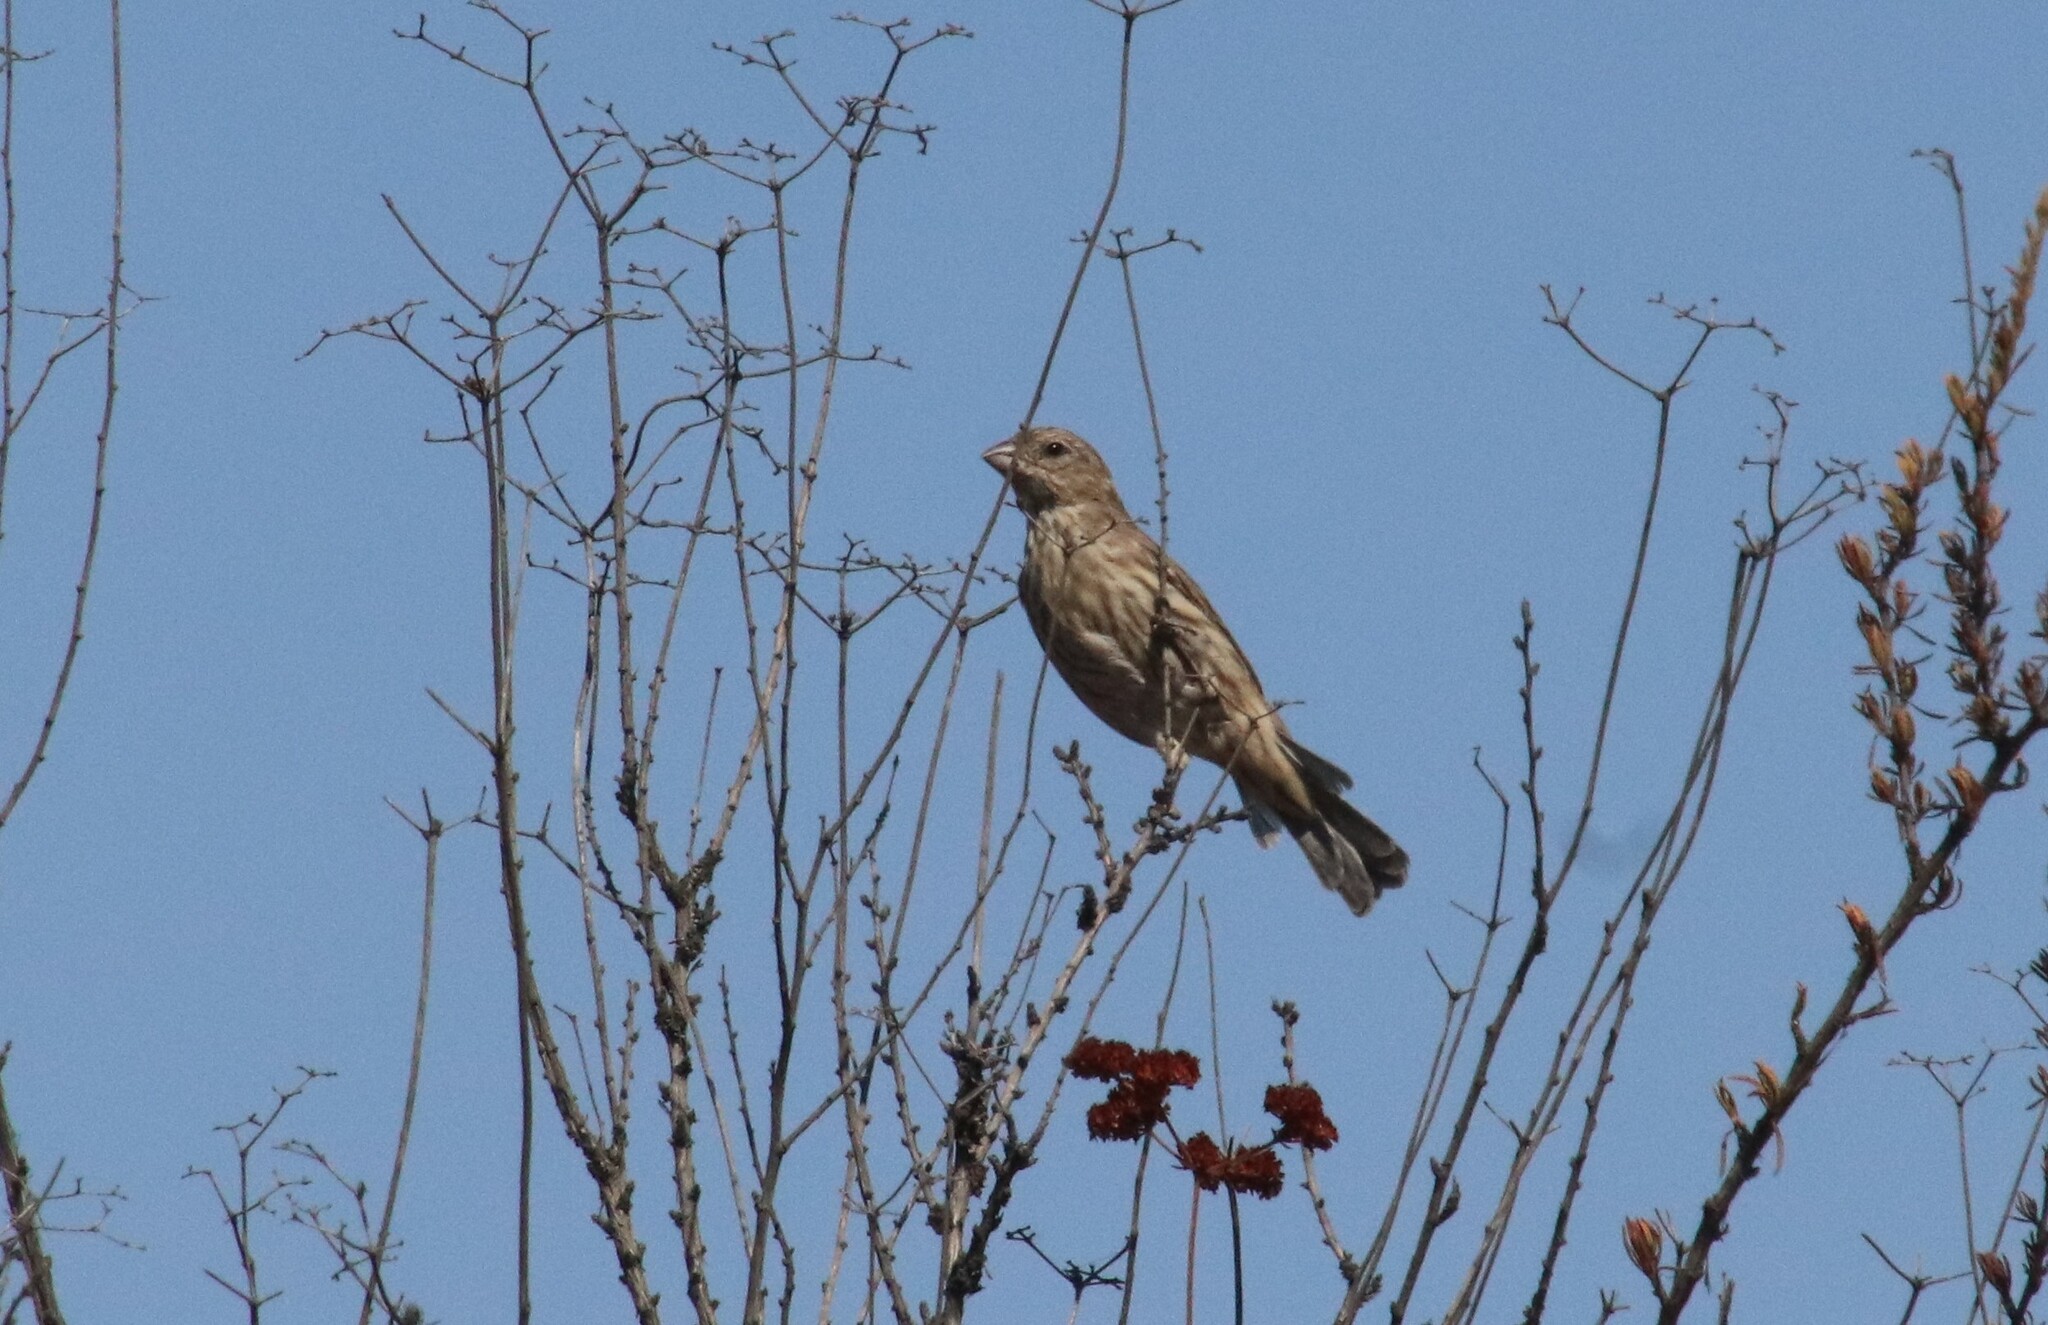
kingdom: Animalia
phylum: Chordata
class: Aves
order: Passeriformes
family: Fringillidae
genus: Haemorhous
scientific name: Haemorhous mexicanus
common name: House finch
